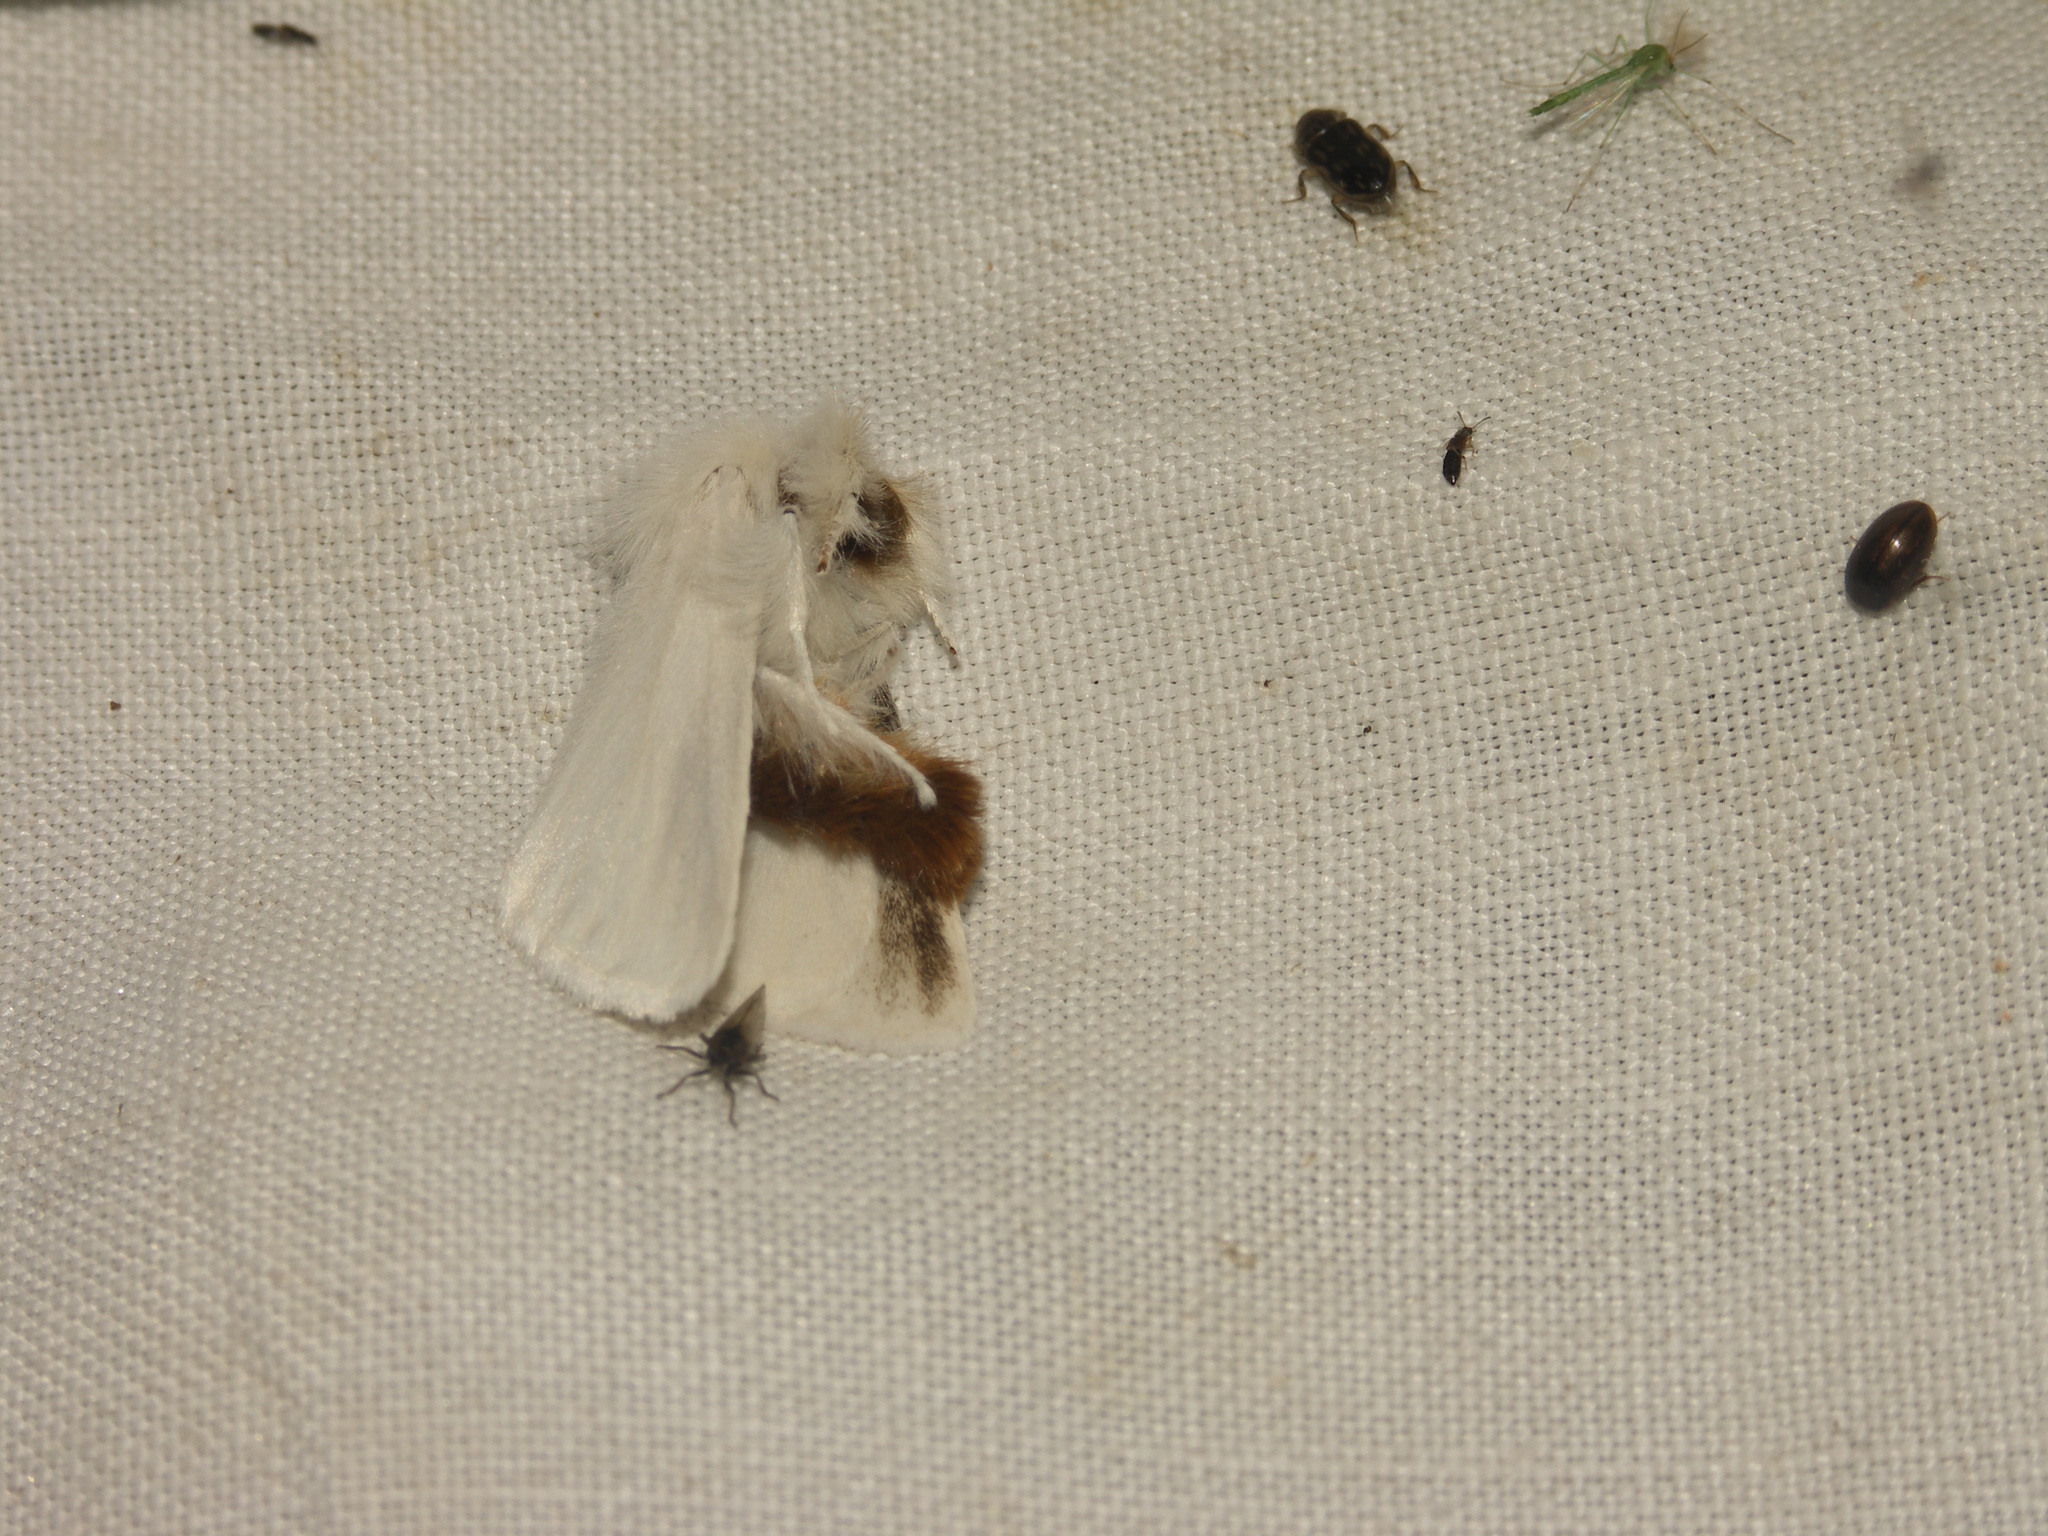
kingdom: Animalia
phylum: Arthropoda
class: Insecta
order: Lepidoptera
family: Erebidae
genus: Euproctis
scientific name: Euproctis chrysorrhoea
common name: Brown-tail
